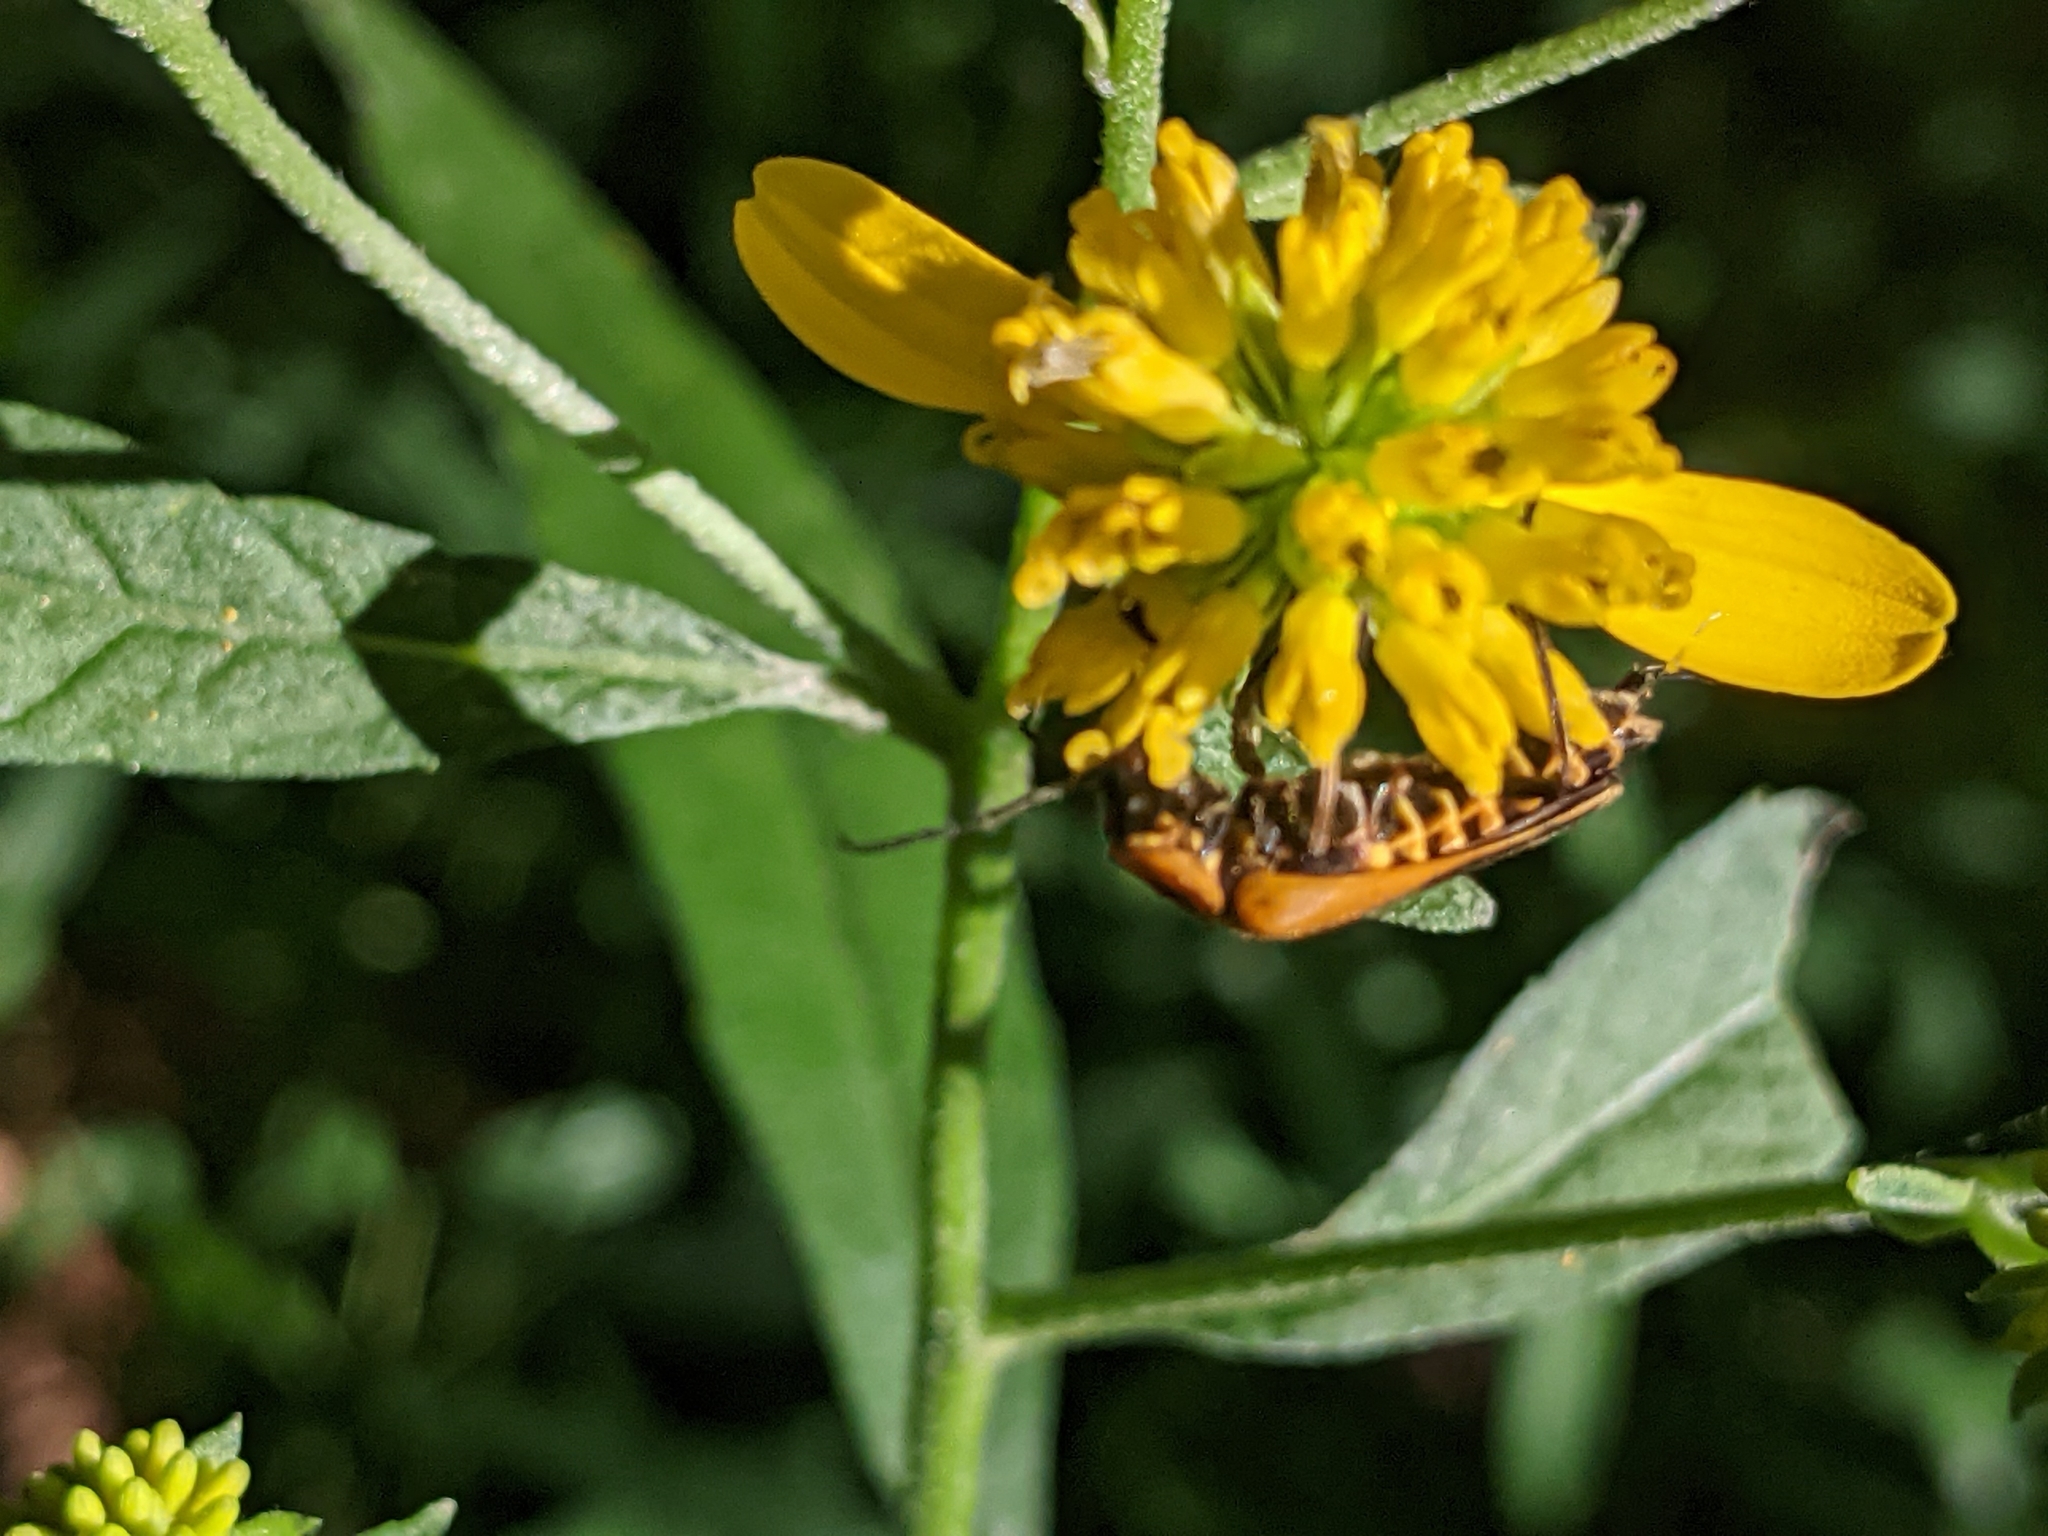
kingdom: Animalia
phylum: Arthropoda
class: Insecta
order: Coleoptera
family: Cantharidae
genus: Chauliognathus
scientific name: Chauliognathus pensylvanicus
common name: Goldenrod soldier beetle
